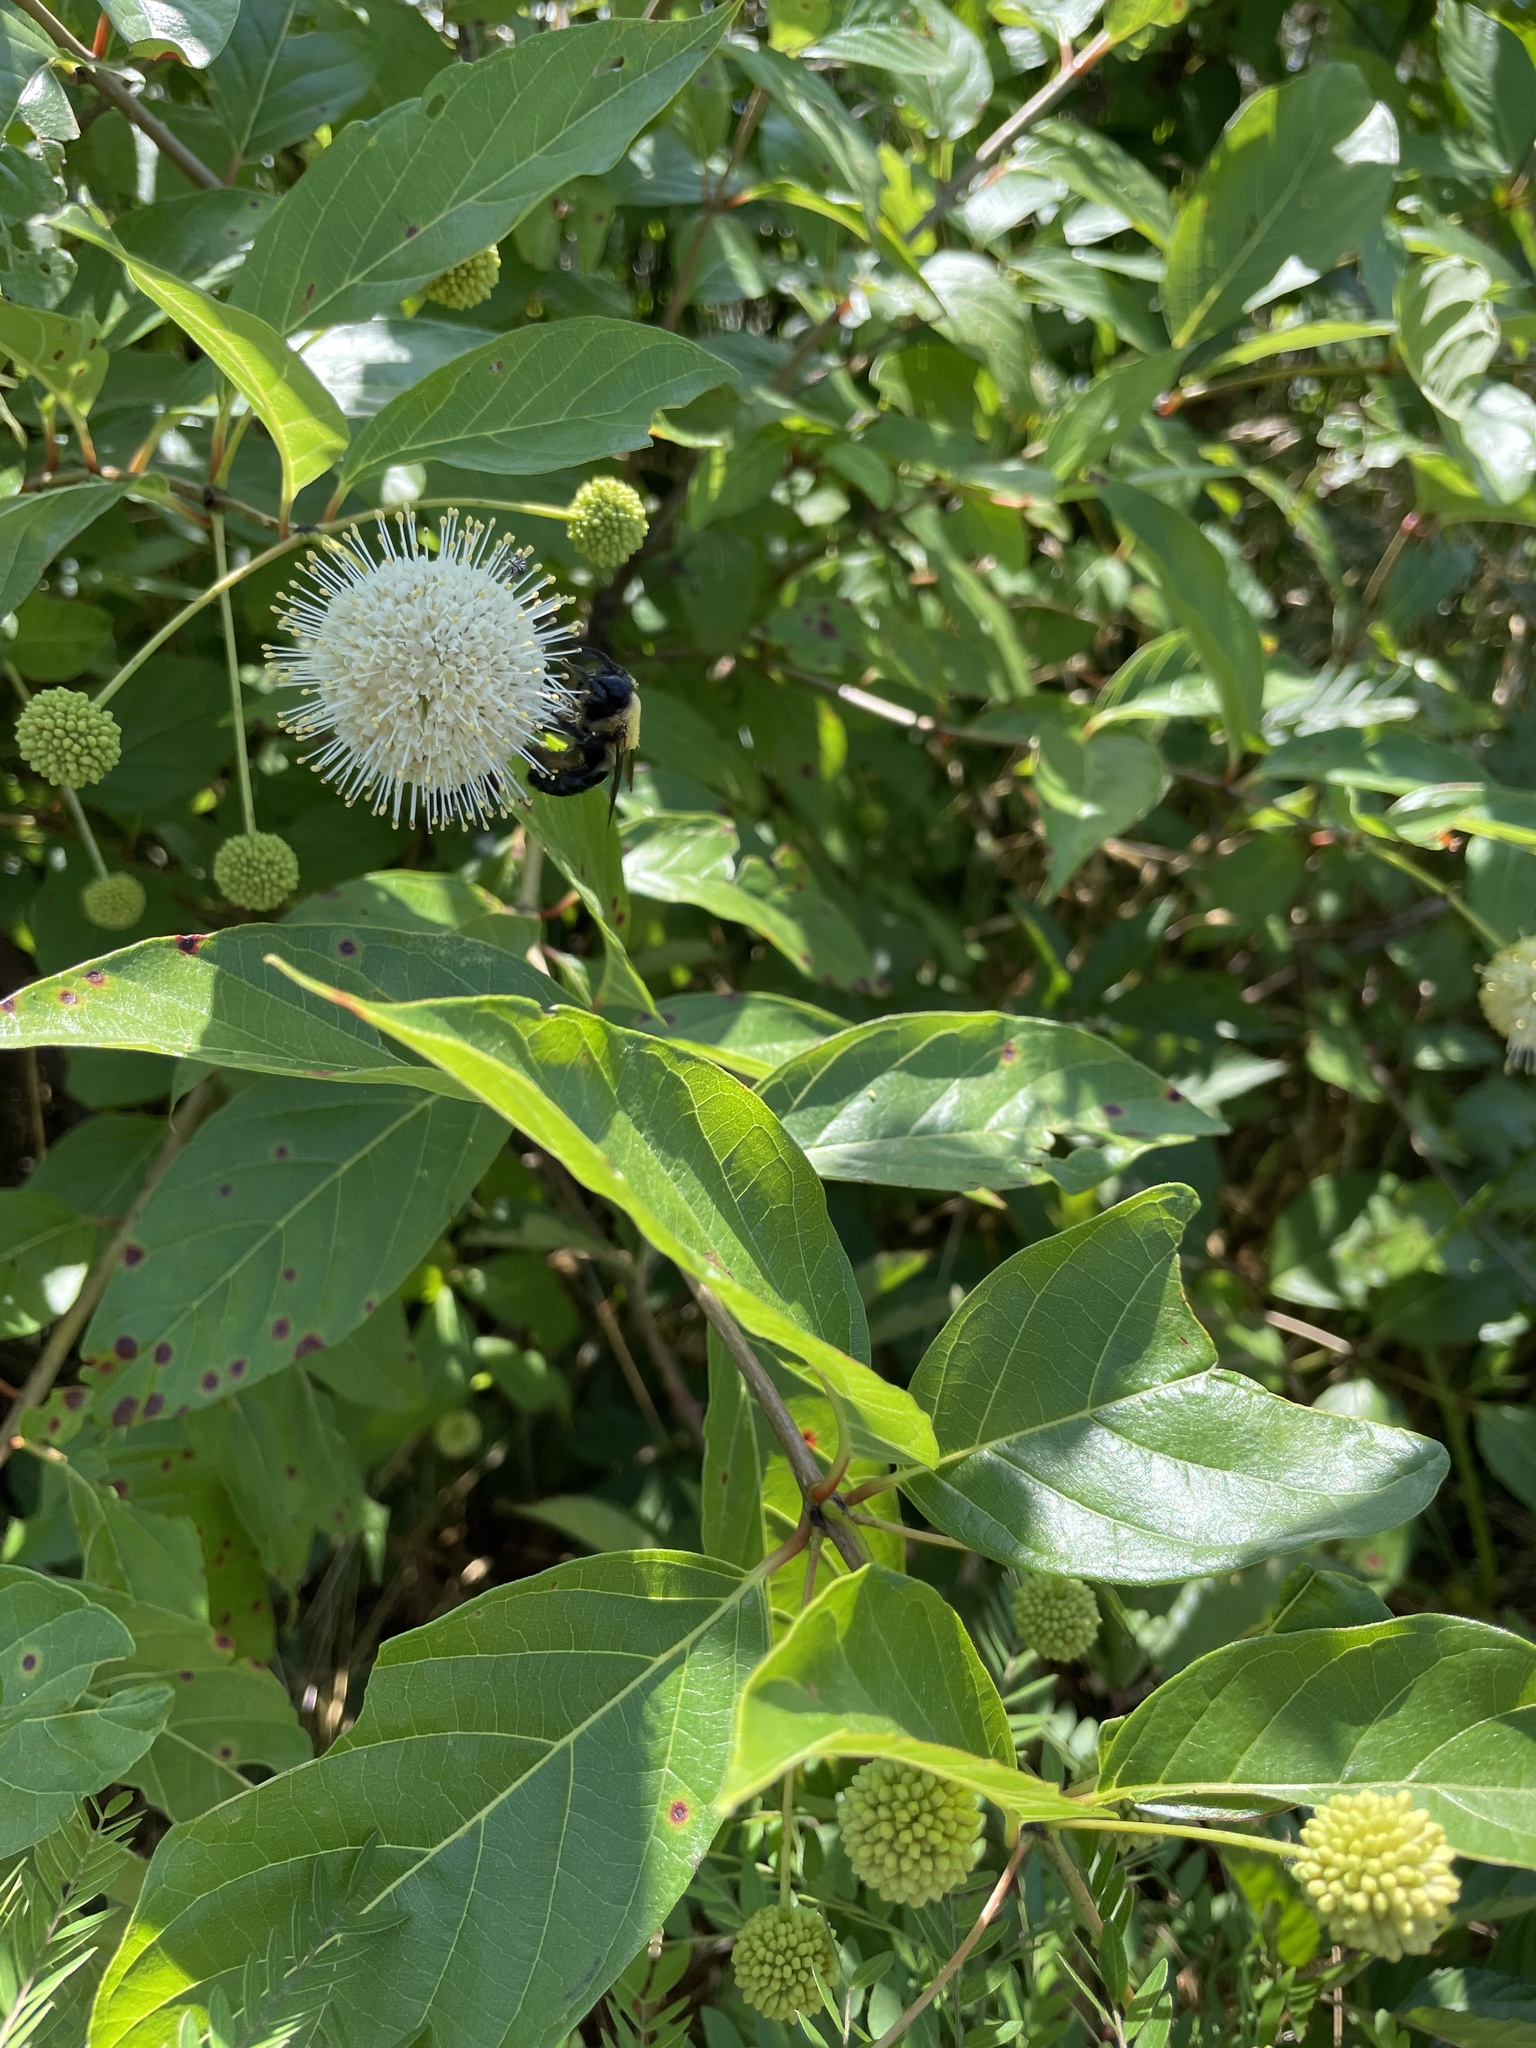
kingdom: Animalia
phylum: Arthropoda
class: Insecta
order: Hymenoptera
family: Apidae
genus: Xylocopa
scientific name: Xylocopa virginica
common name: Carpenter bee
